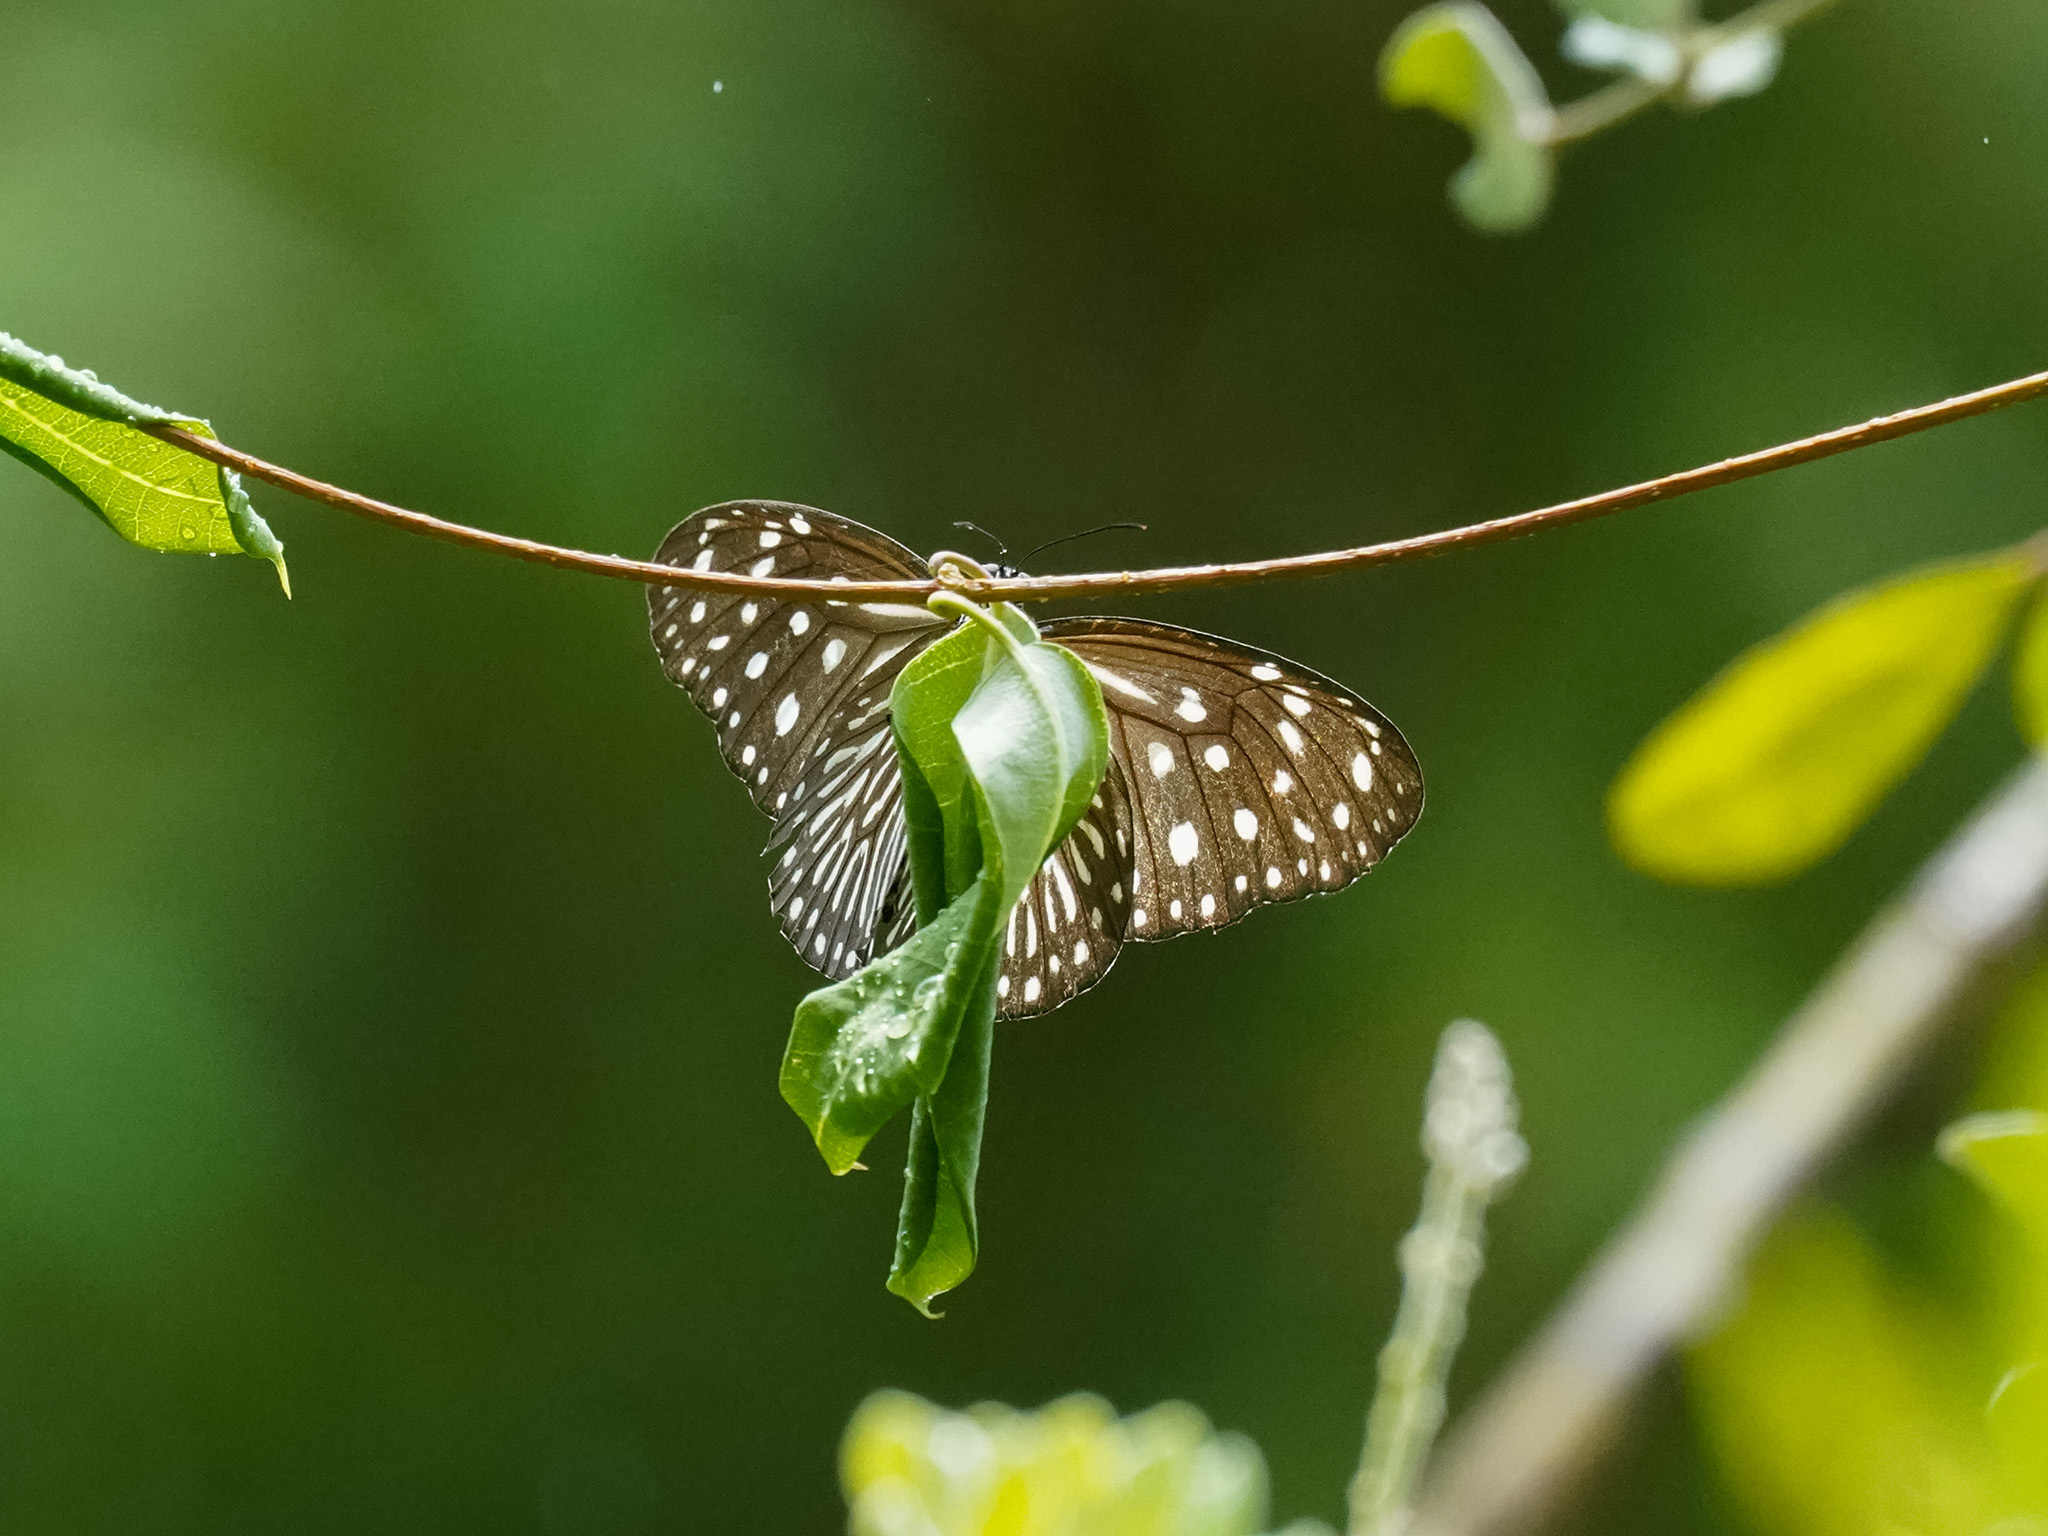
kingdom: Animalia
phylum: Arthropoda
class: Insecta
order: Lepidoptera
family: Nymphalidae
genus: Euploea
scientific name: Euploea mulciber
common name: Striped blue crow butterfly
